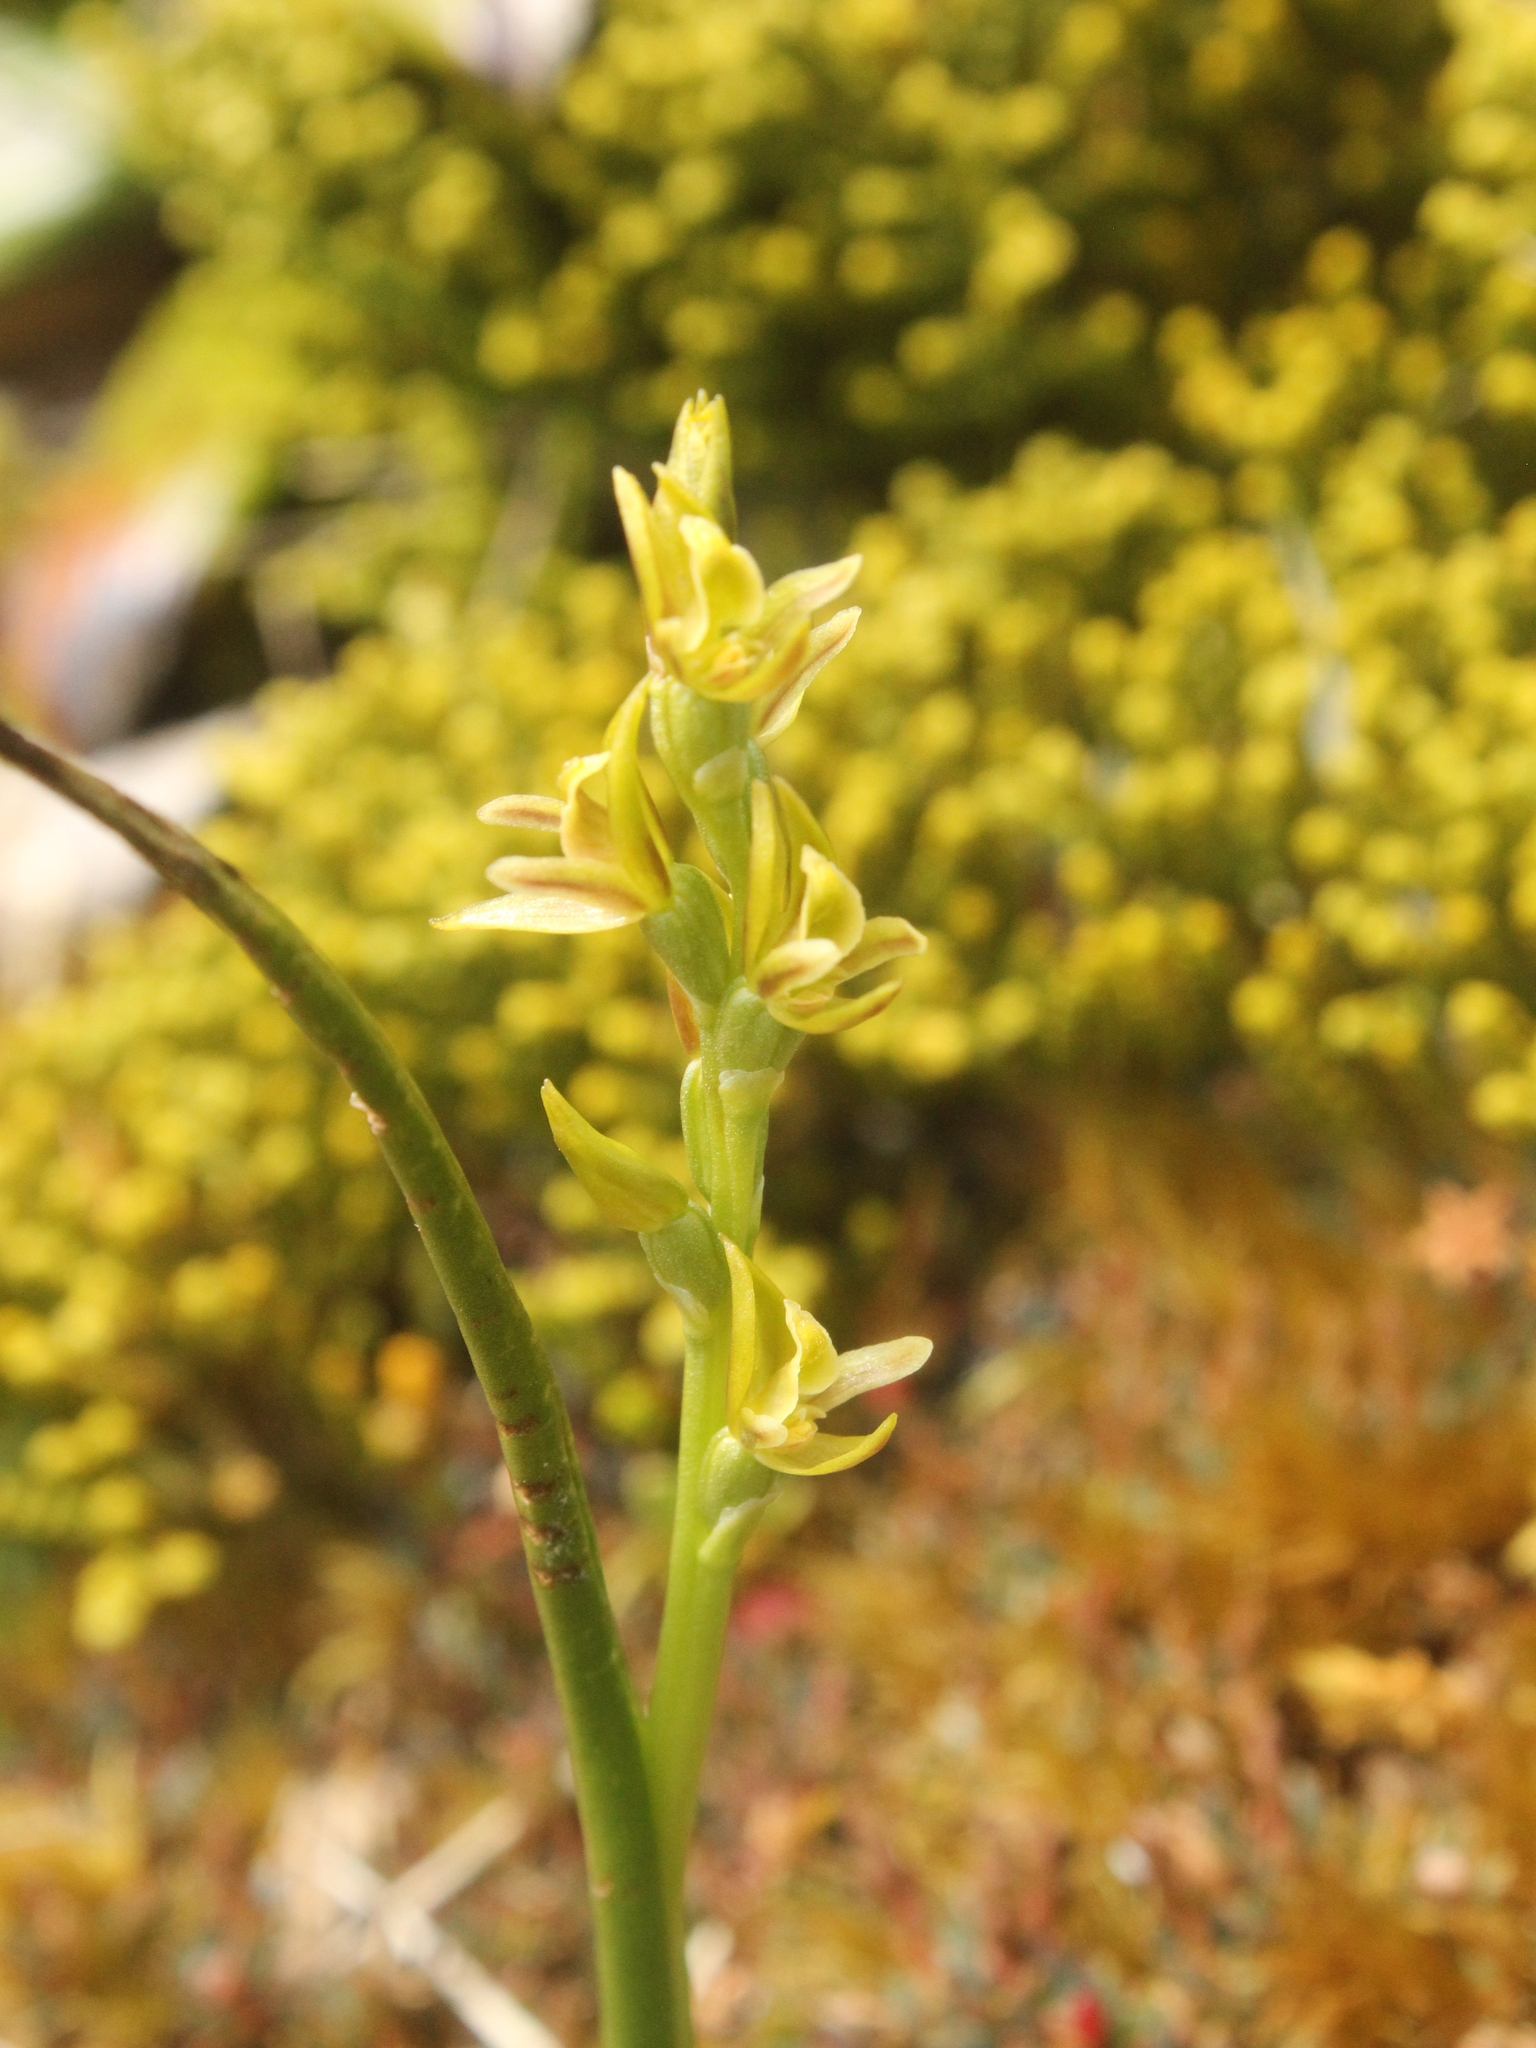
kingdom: Plantae
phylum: Tracheophyta
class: Liliopsida
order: Asparagales
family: Orchidaceae
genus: Prasophyllum
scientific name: Prasophyllum colensoi
